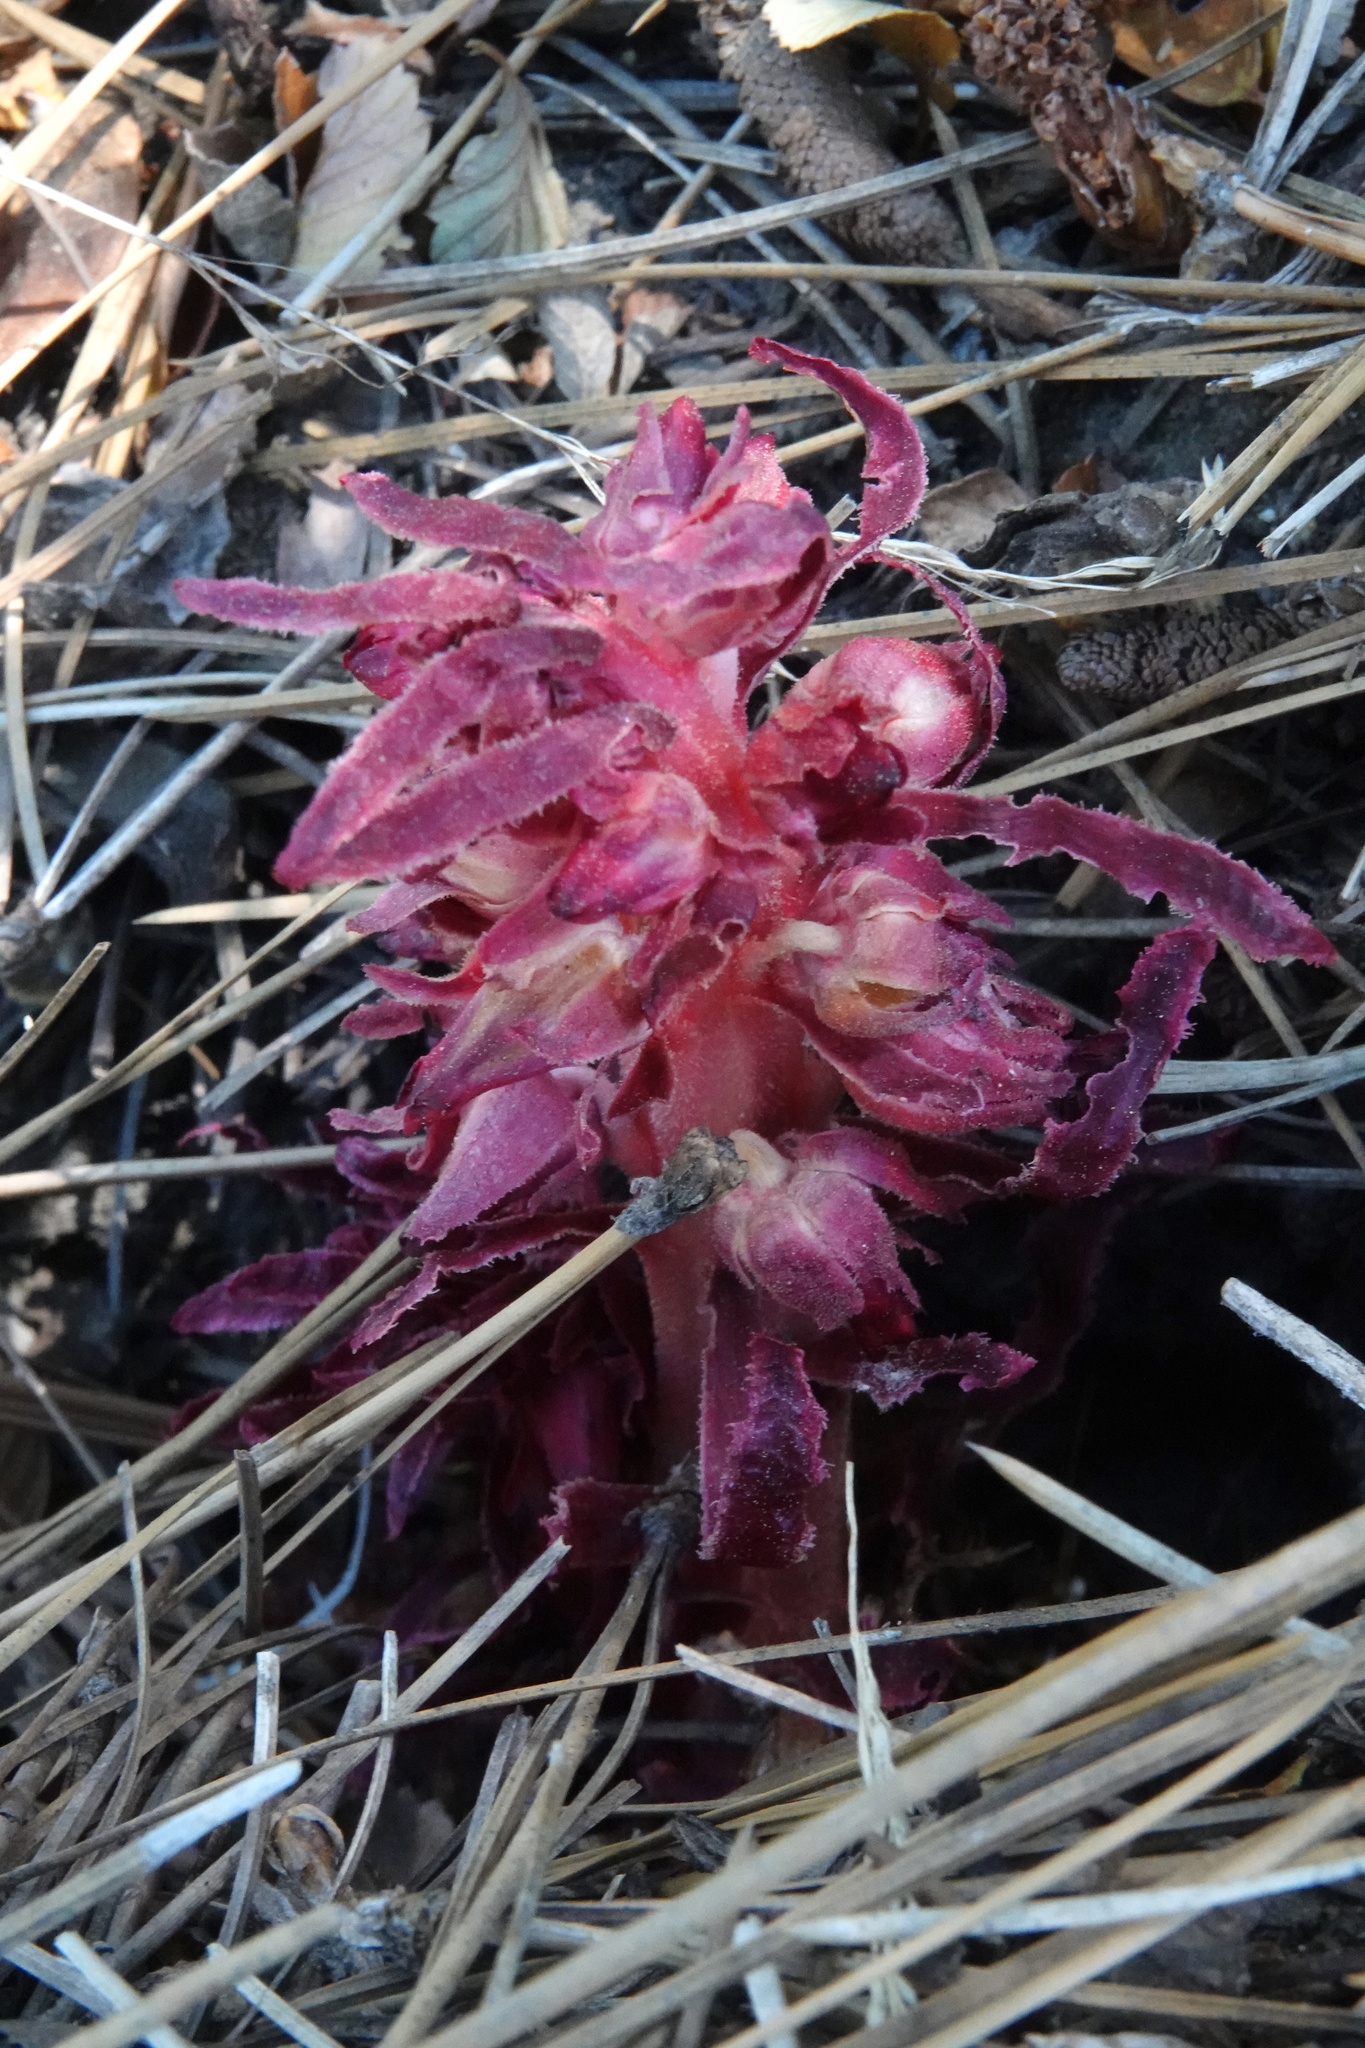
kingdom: Plantae
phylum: Tracheophyta
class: Magnoliopsida
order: Ericales
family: Ericaceae
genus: Sarcodes
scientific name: Sarcodes sanguinea
